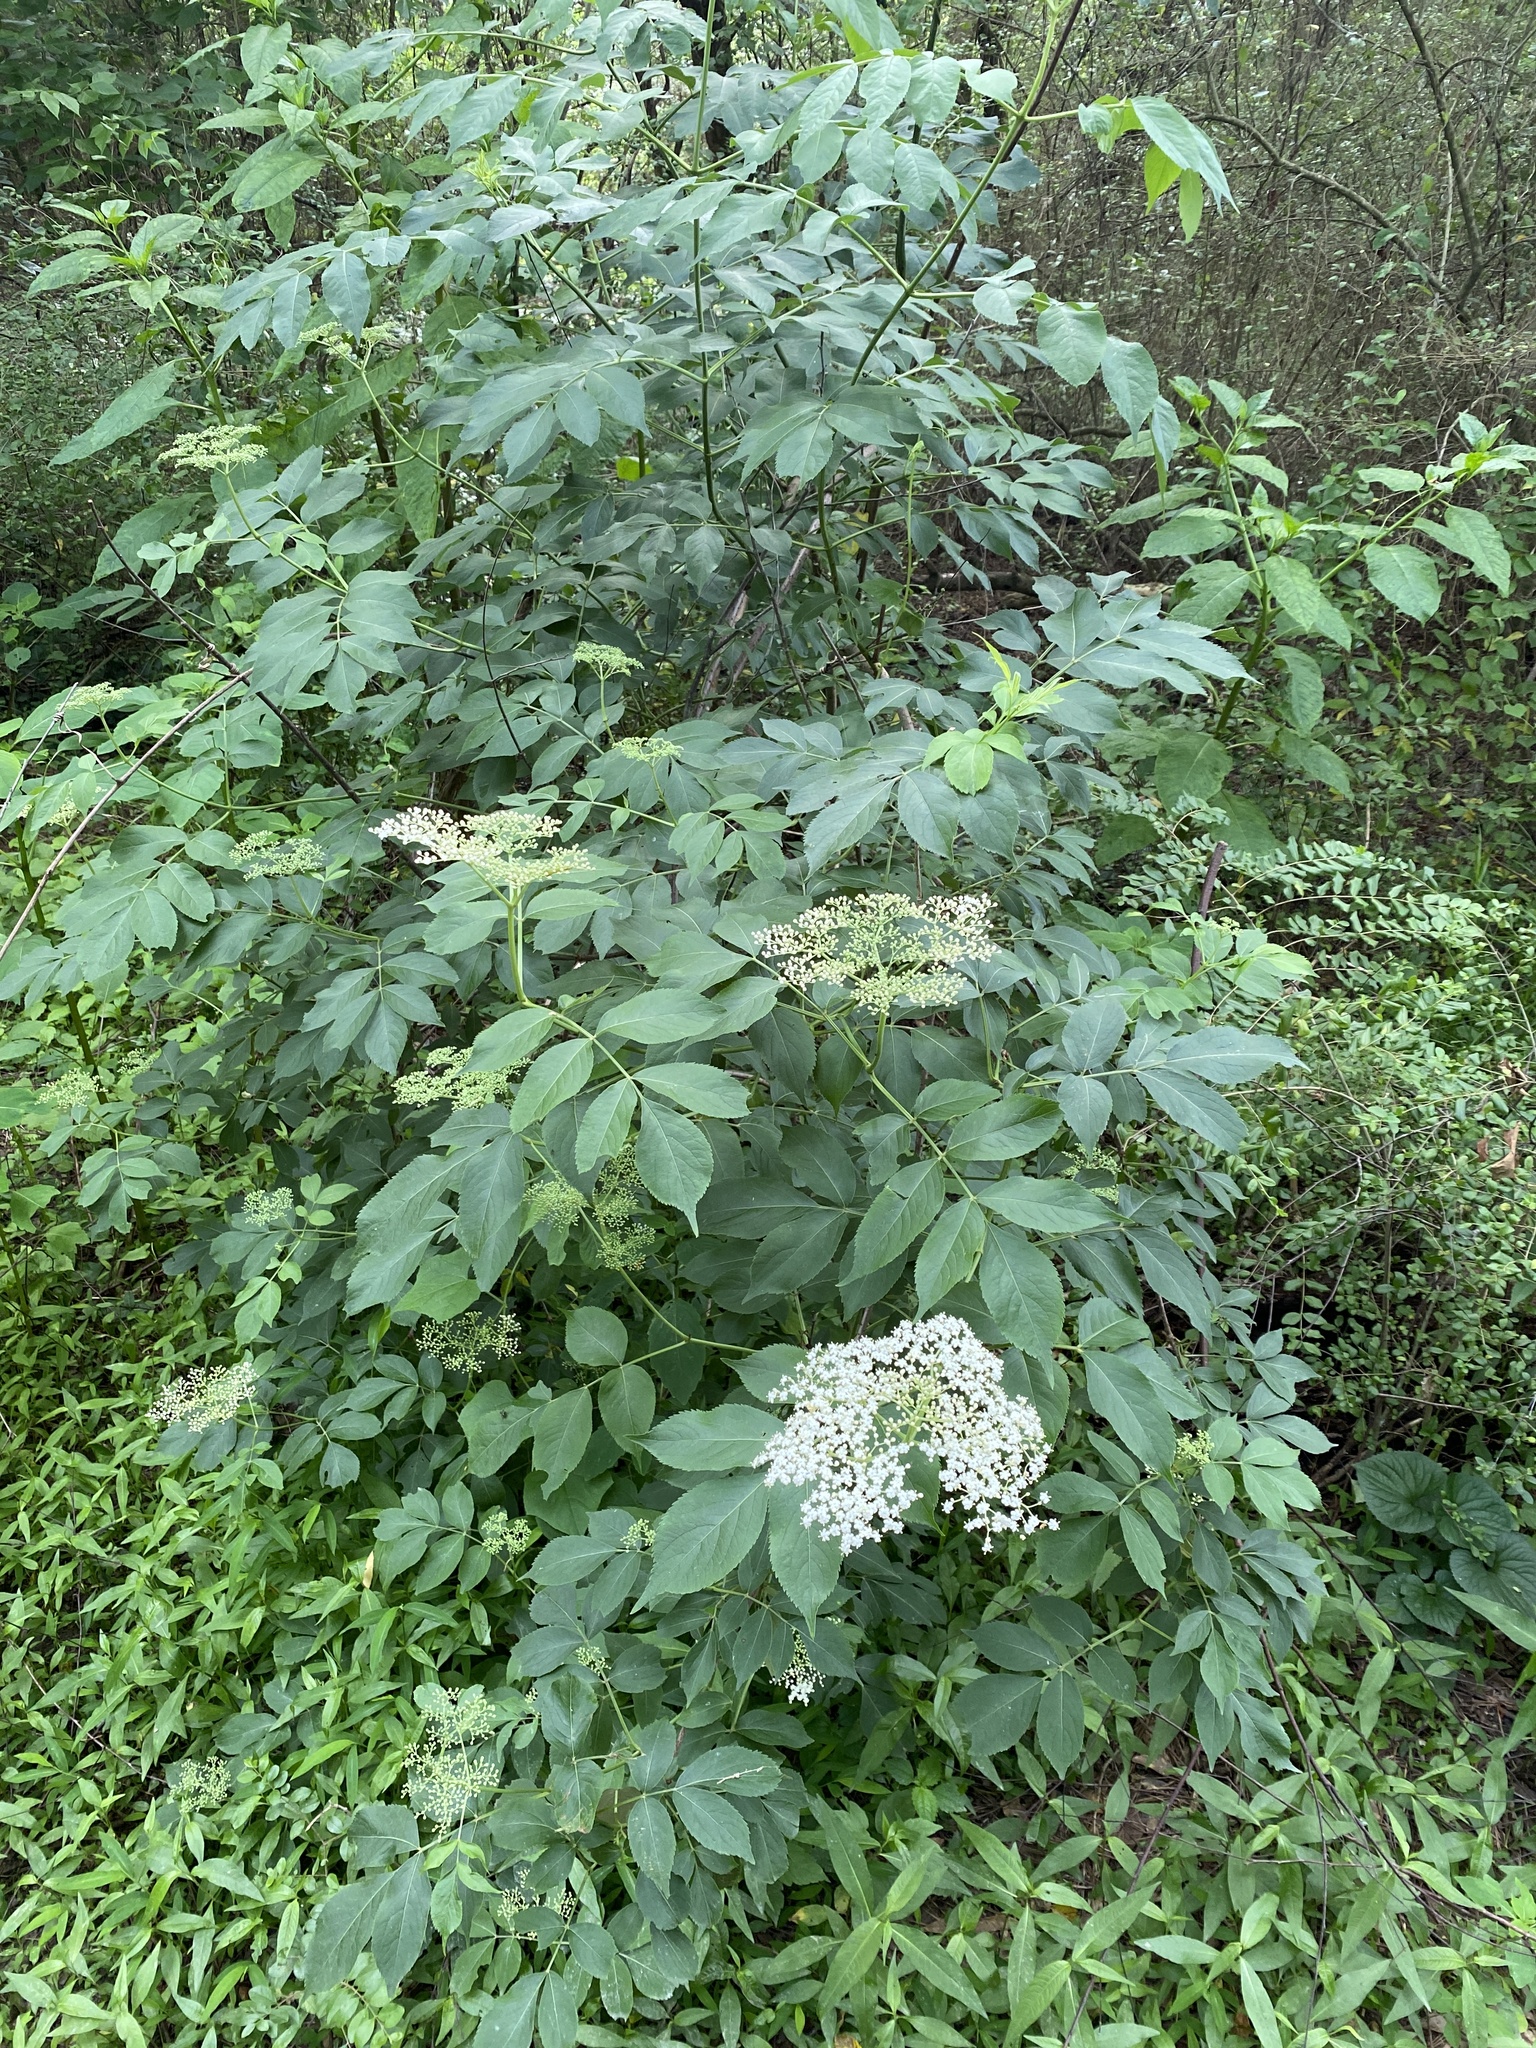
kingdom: Plantae
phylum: Tracheophyta
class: Magnoliopsida
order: Dipsacales
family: Viburnaceae
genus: Sambucus
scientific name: Sambucus canadensis
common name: American elder
